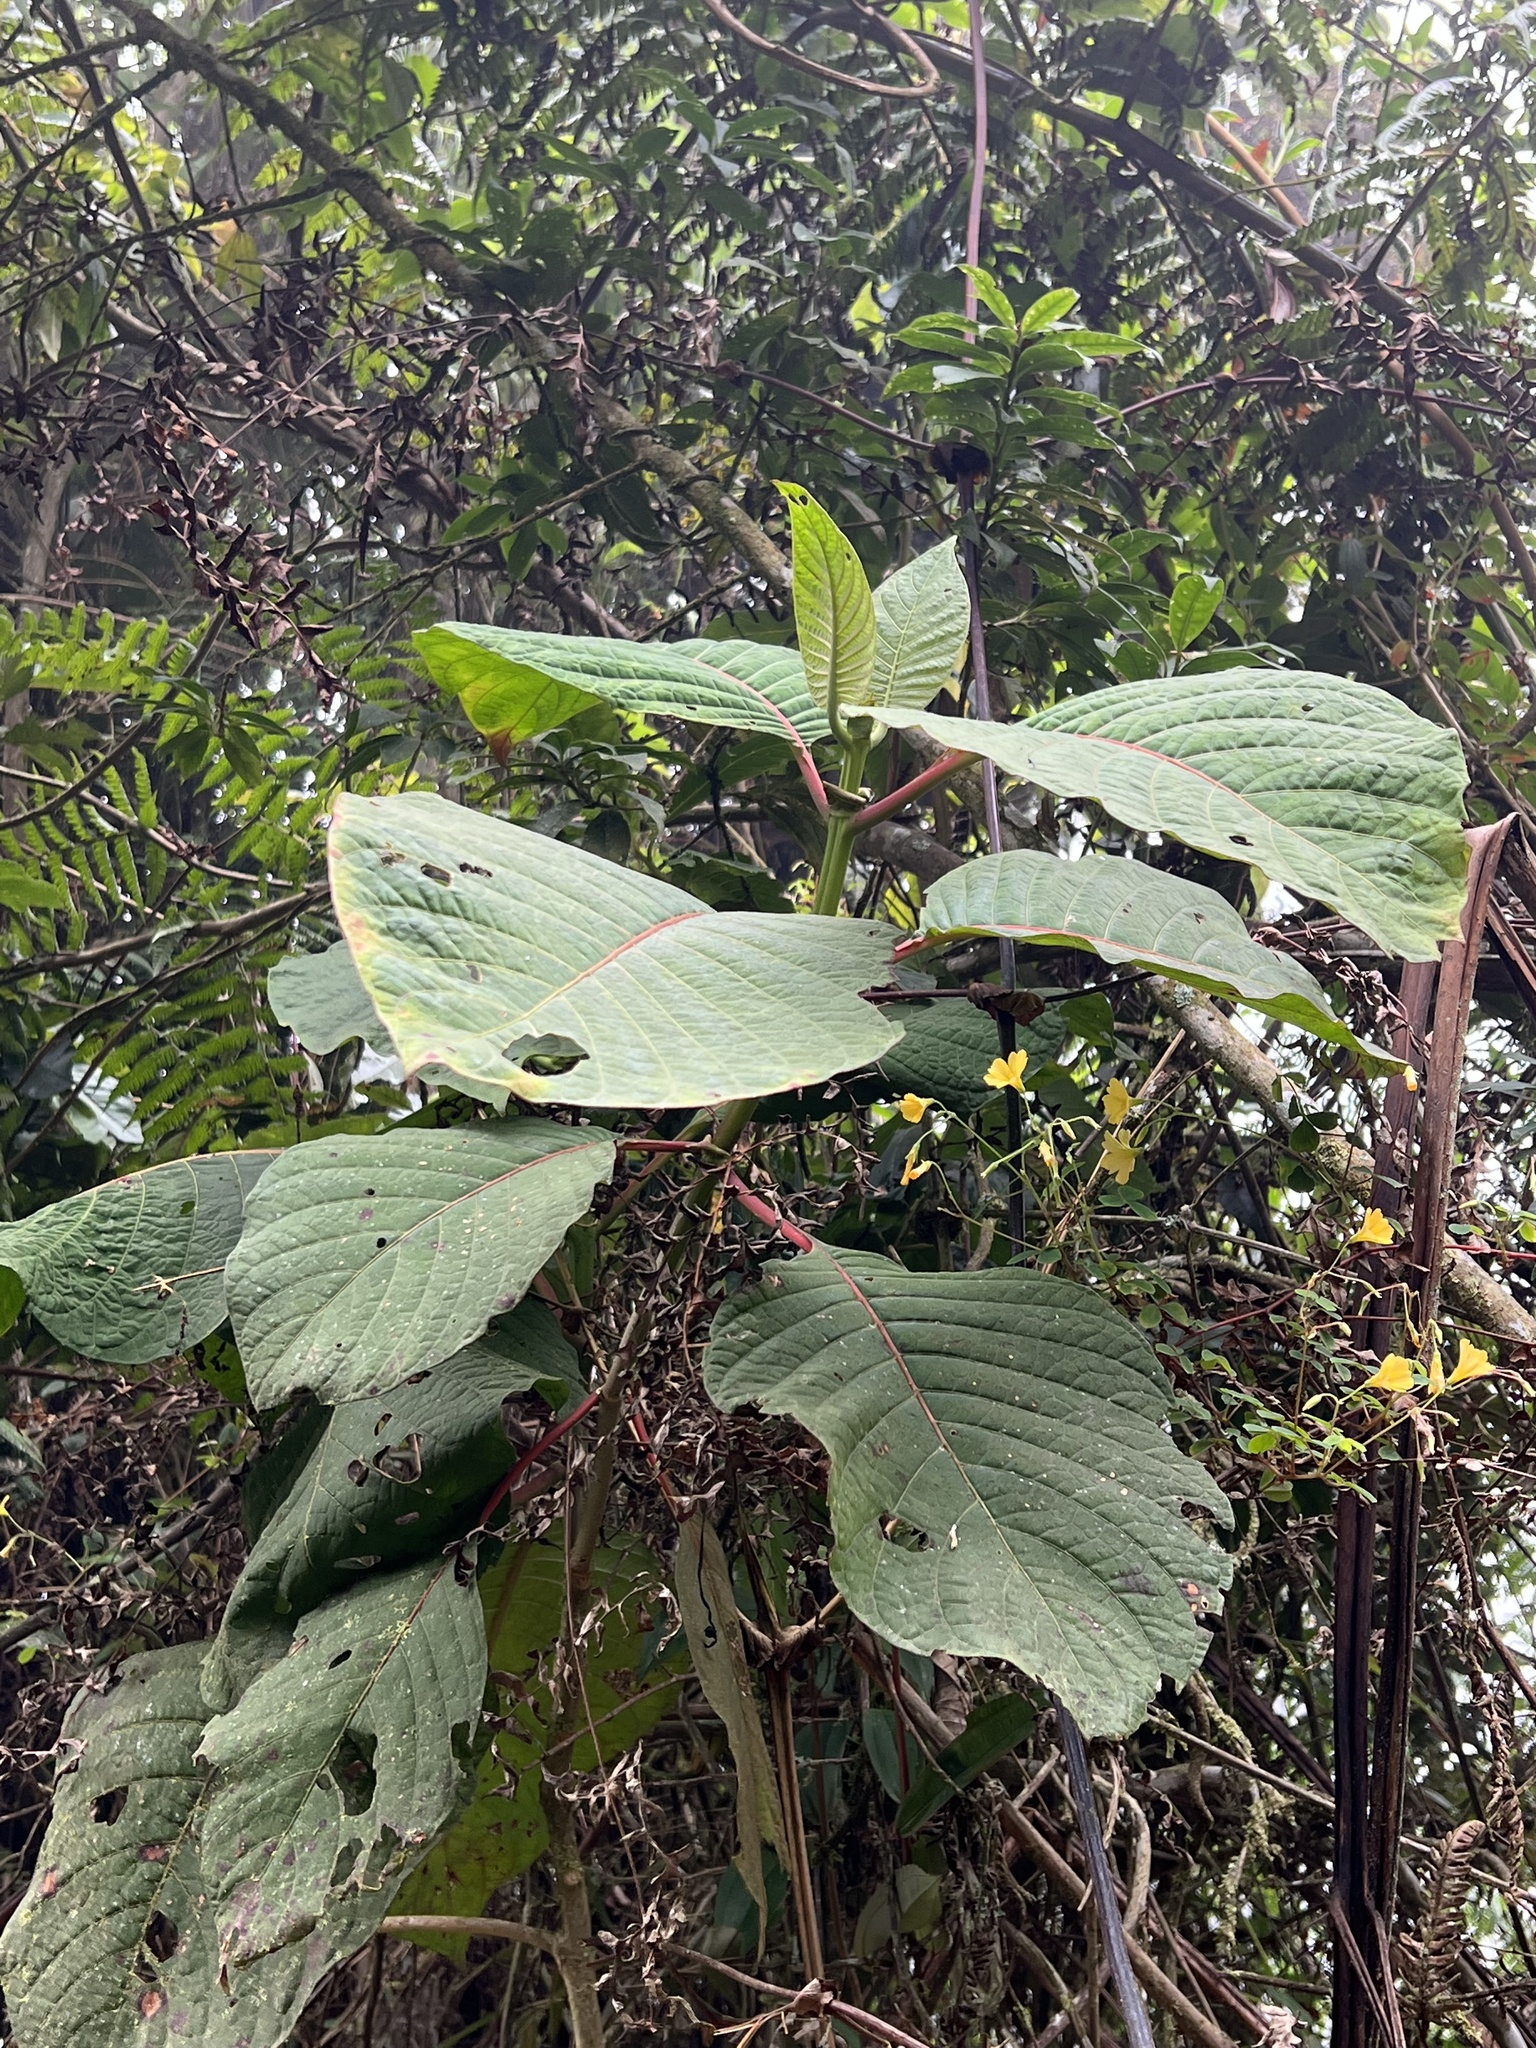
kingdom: Plantae
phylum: Tracheophyta
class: Magnoliopsida
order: Gentianales
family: Rubiaceae
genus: Cinchona
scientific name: Cinchona pubescens
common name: Quinine
